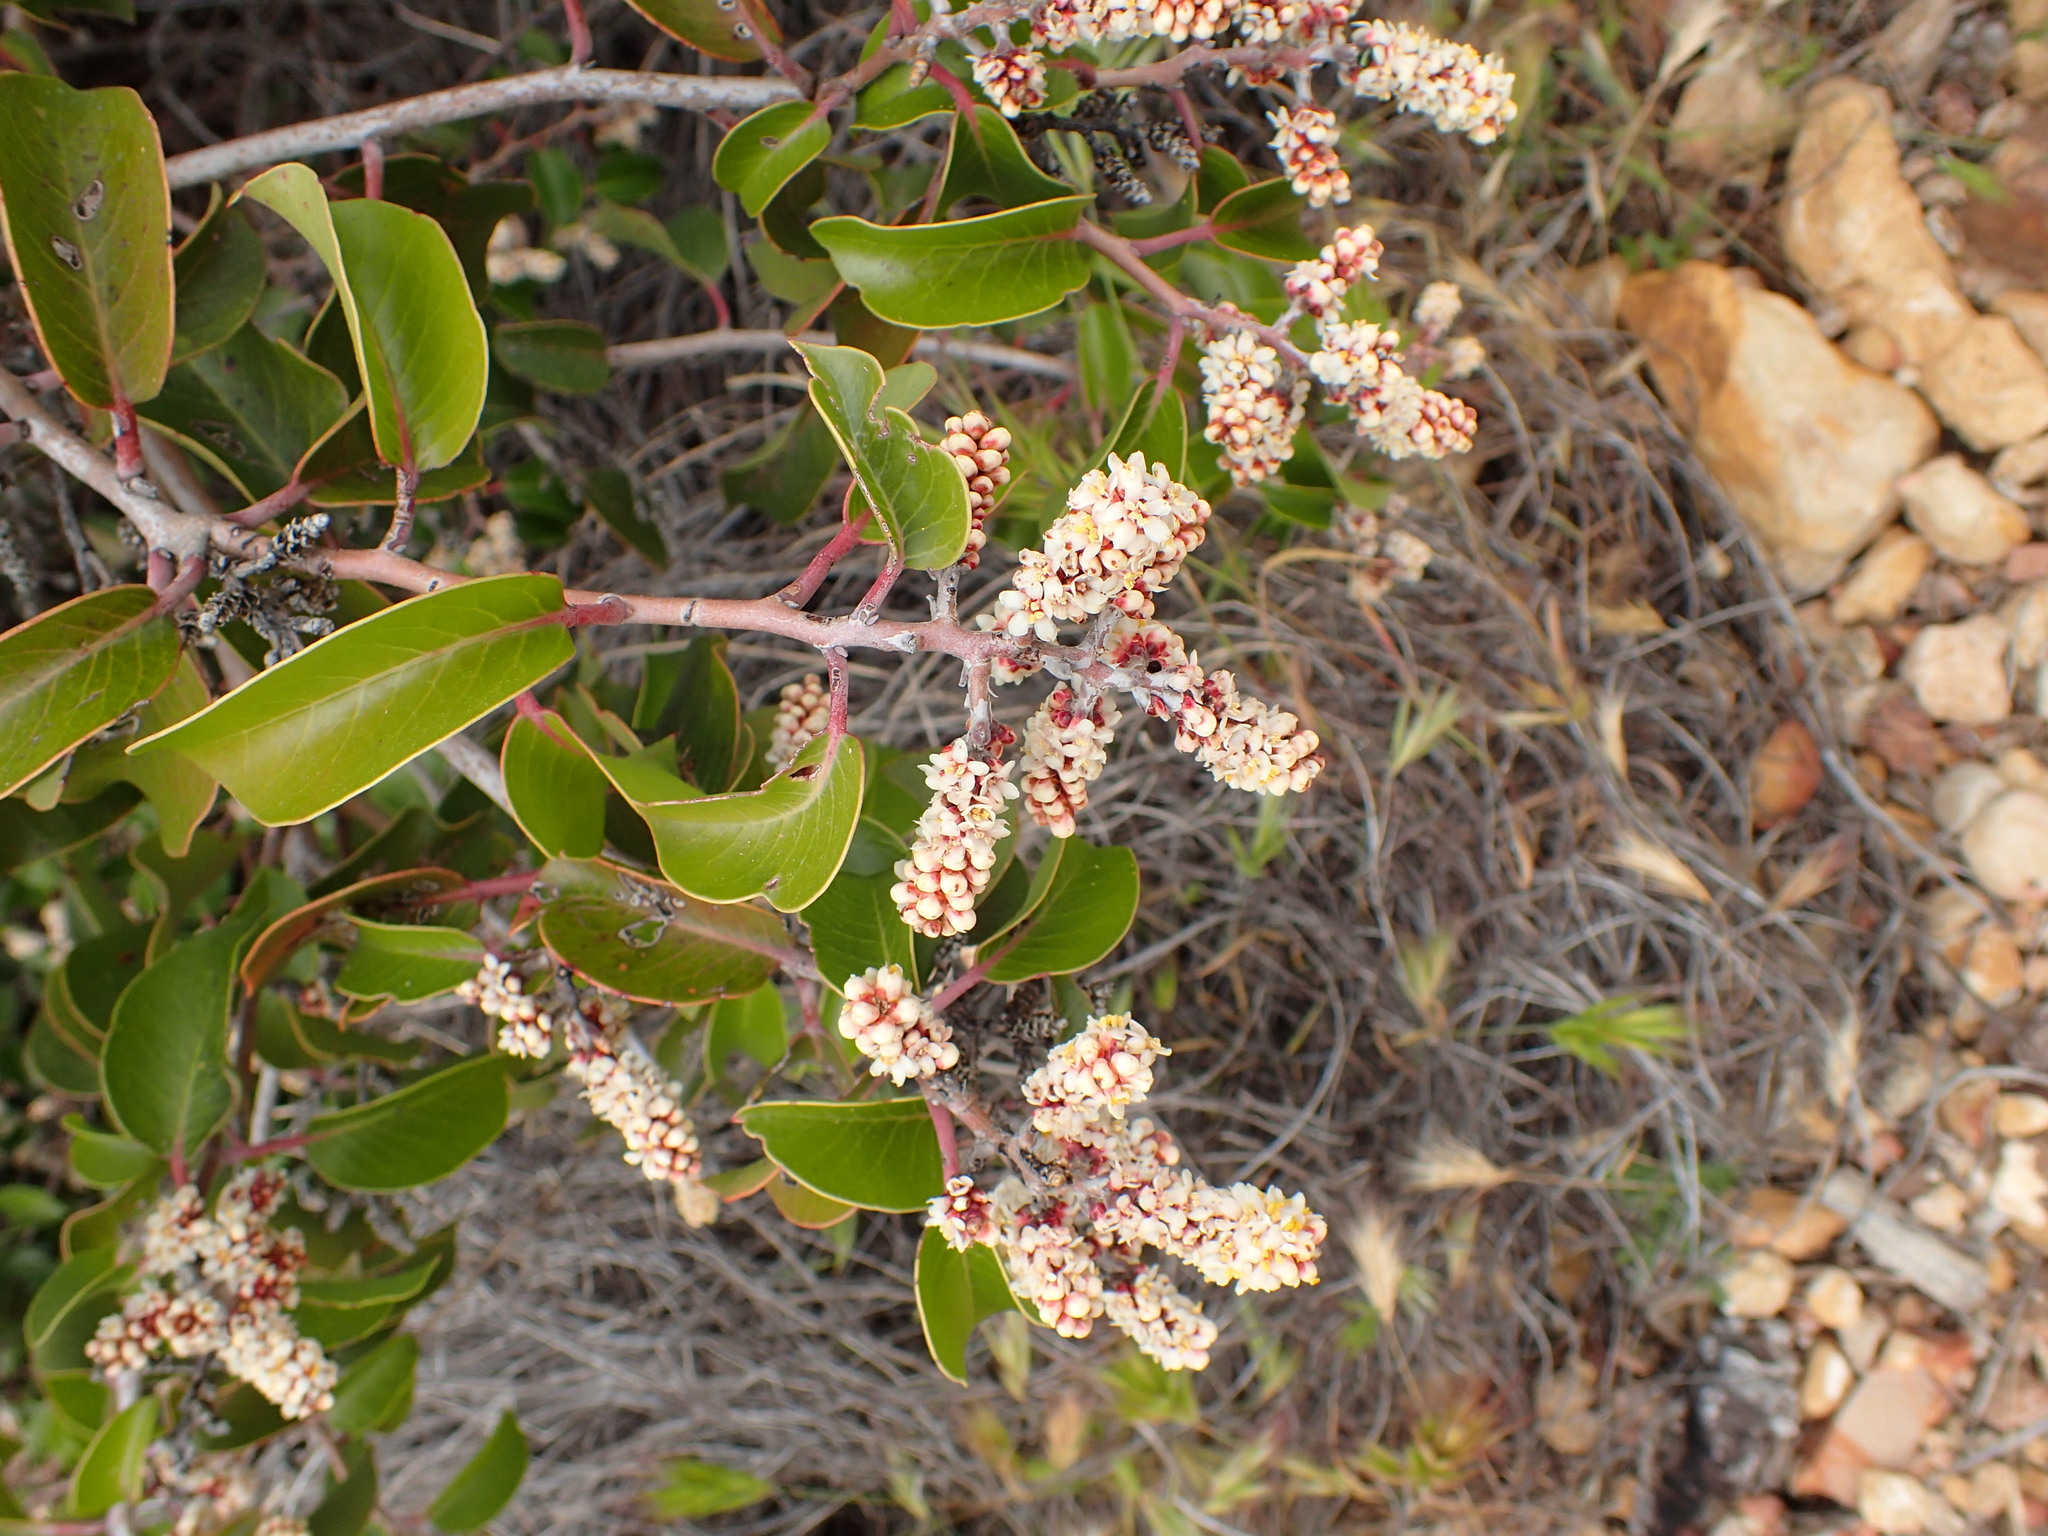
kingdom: Plantae
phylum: Tracheophyta
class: Magnoliopsida
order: Sapindales
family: Anacardiaceae
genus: Rhus
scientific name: Rhus ovata
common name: Sugar sumac
